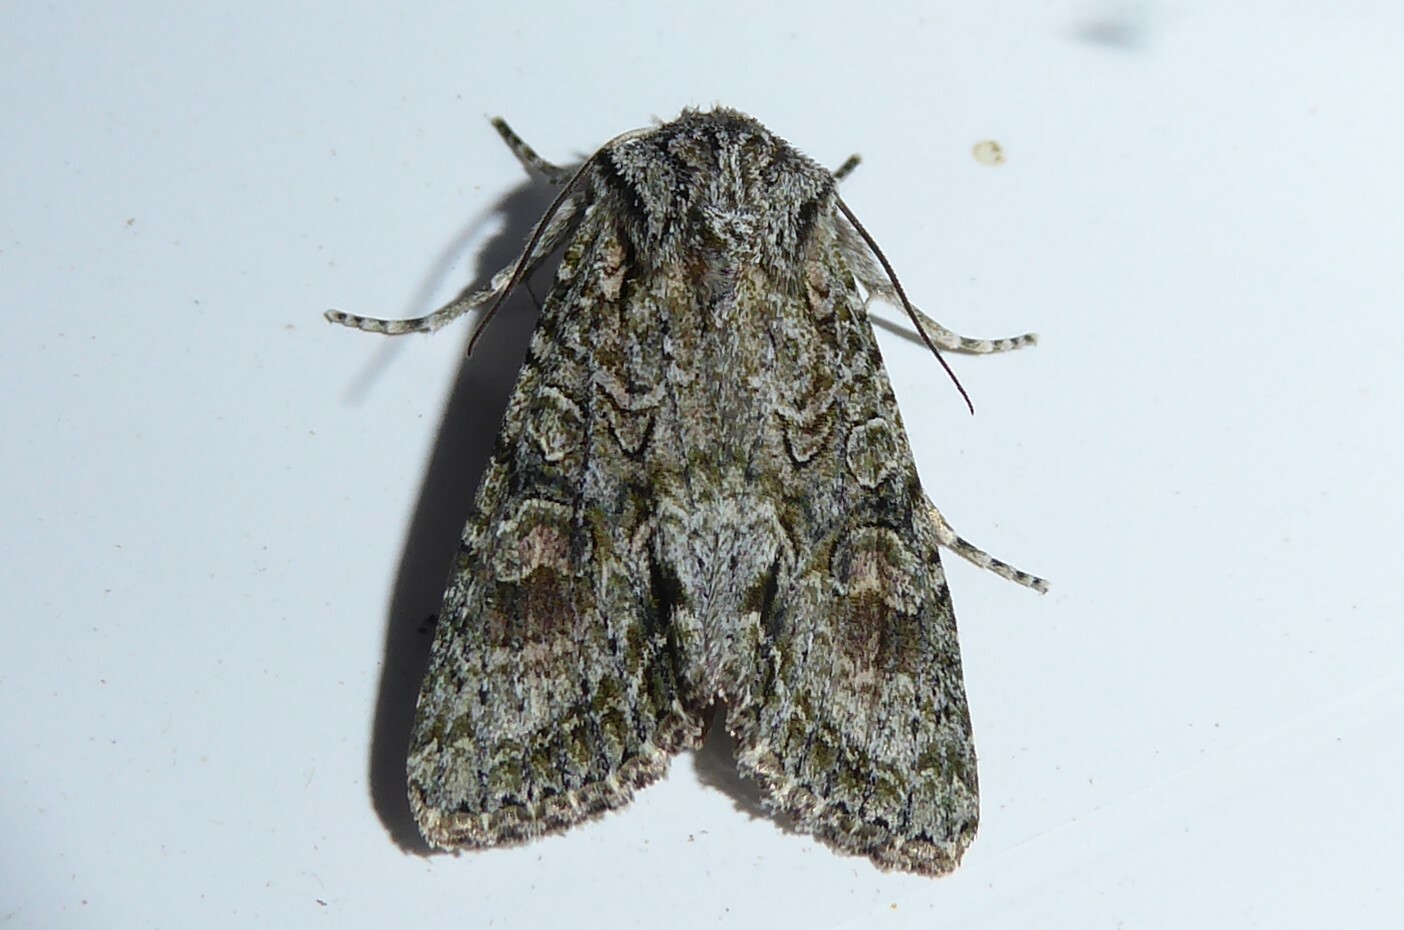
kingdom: Animalia
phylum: Arthropoda
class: Insecta
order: Lepidoptera
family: Noctuidae
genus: Ichneutica
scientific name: Ichneutica mutans
